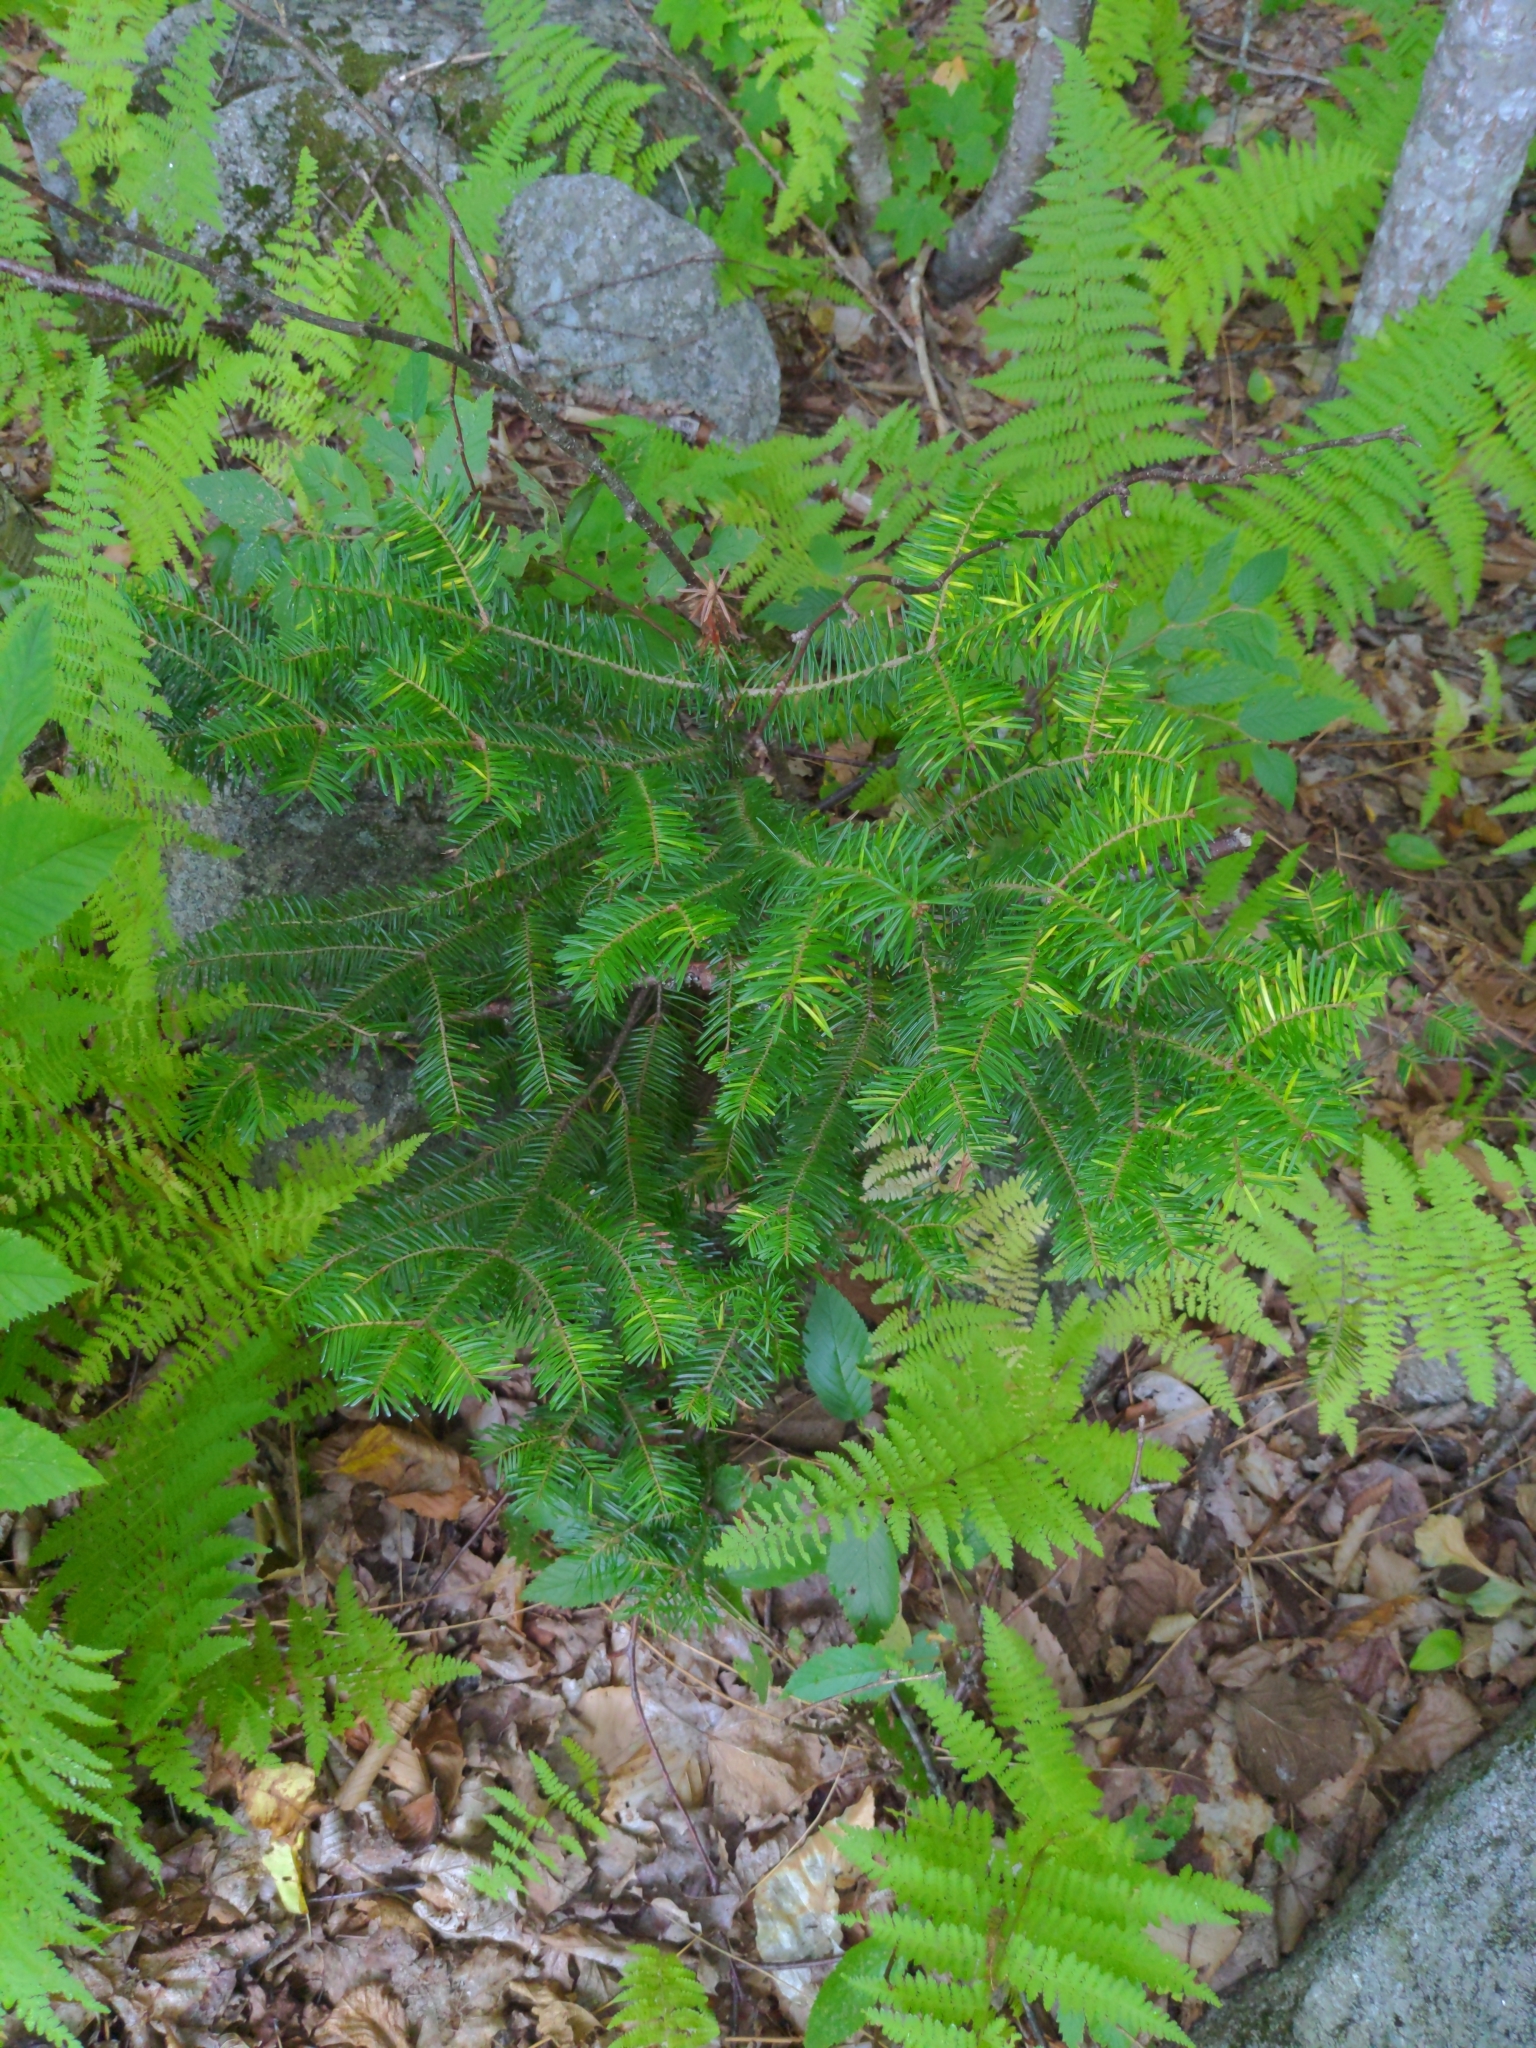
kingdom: Plantae
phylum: Tracheophyta
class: Pinopsida
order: Pinales
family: Pinaceae
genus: Abies
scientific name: Abies balsamea
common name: Balsam fir
